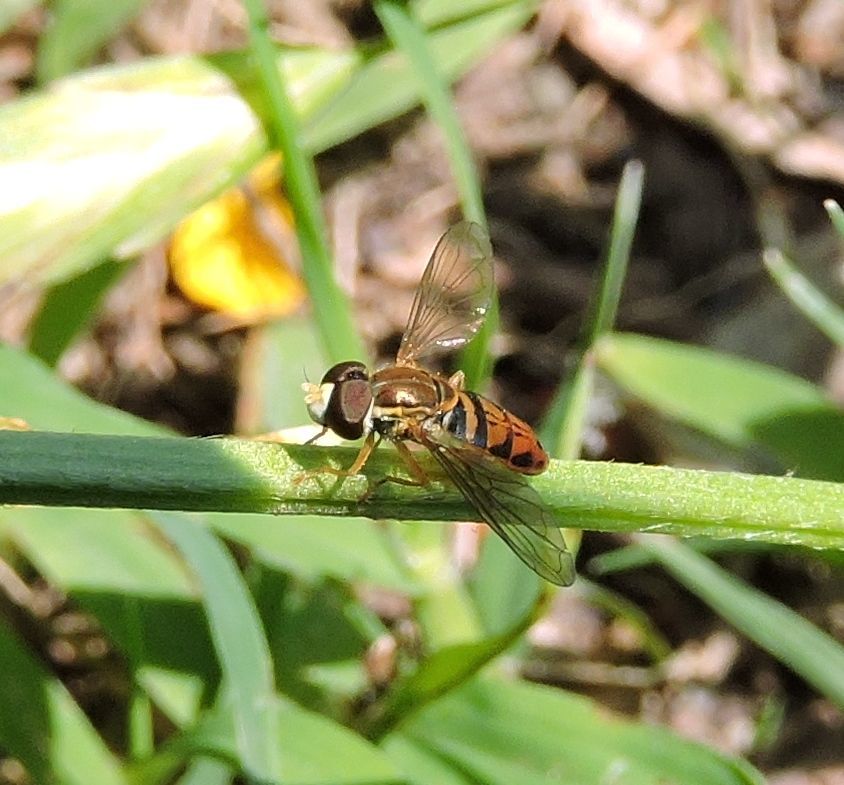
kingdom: Animalia
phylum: Arthropoda
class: Insecta
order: Diptera
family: Syrphidae
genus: Toxomerus
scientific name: Toxomerus marginatus
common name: Syrphid fly
